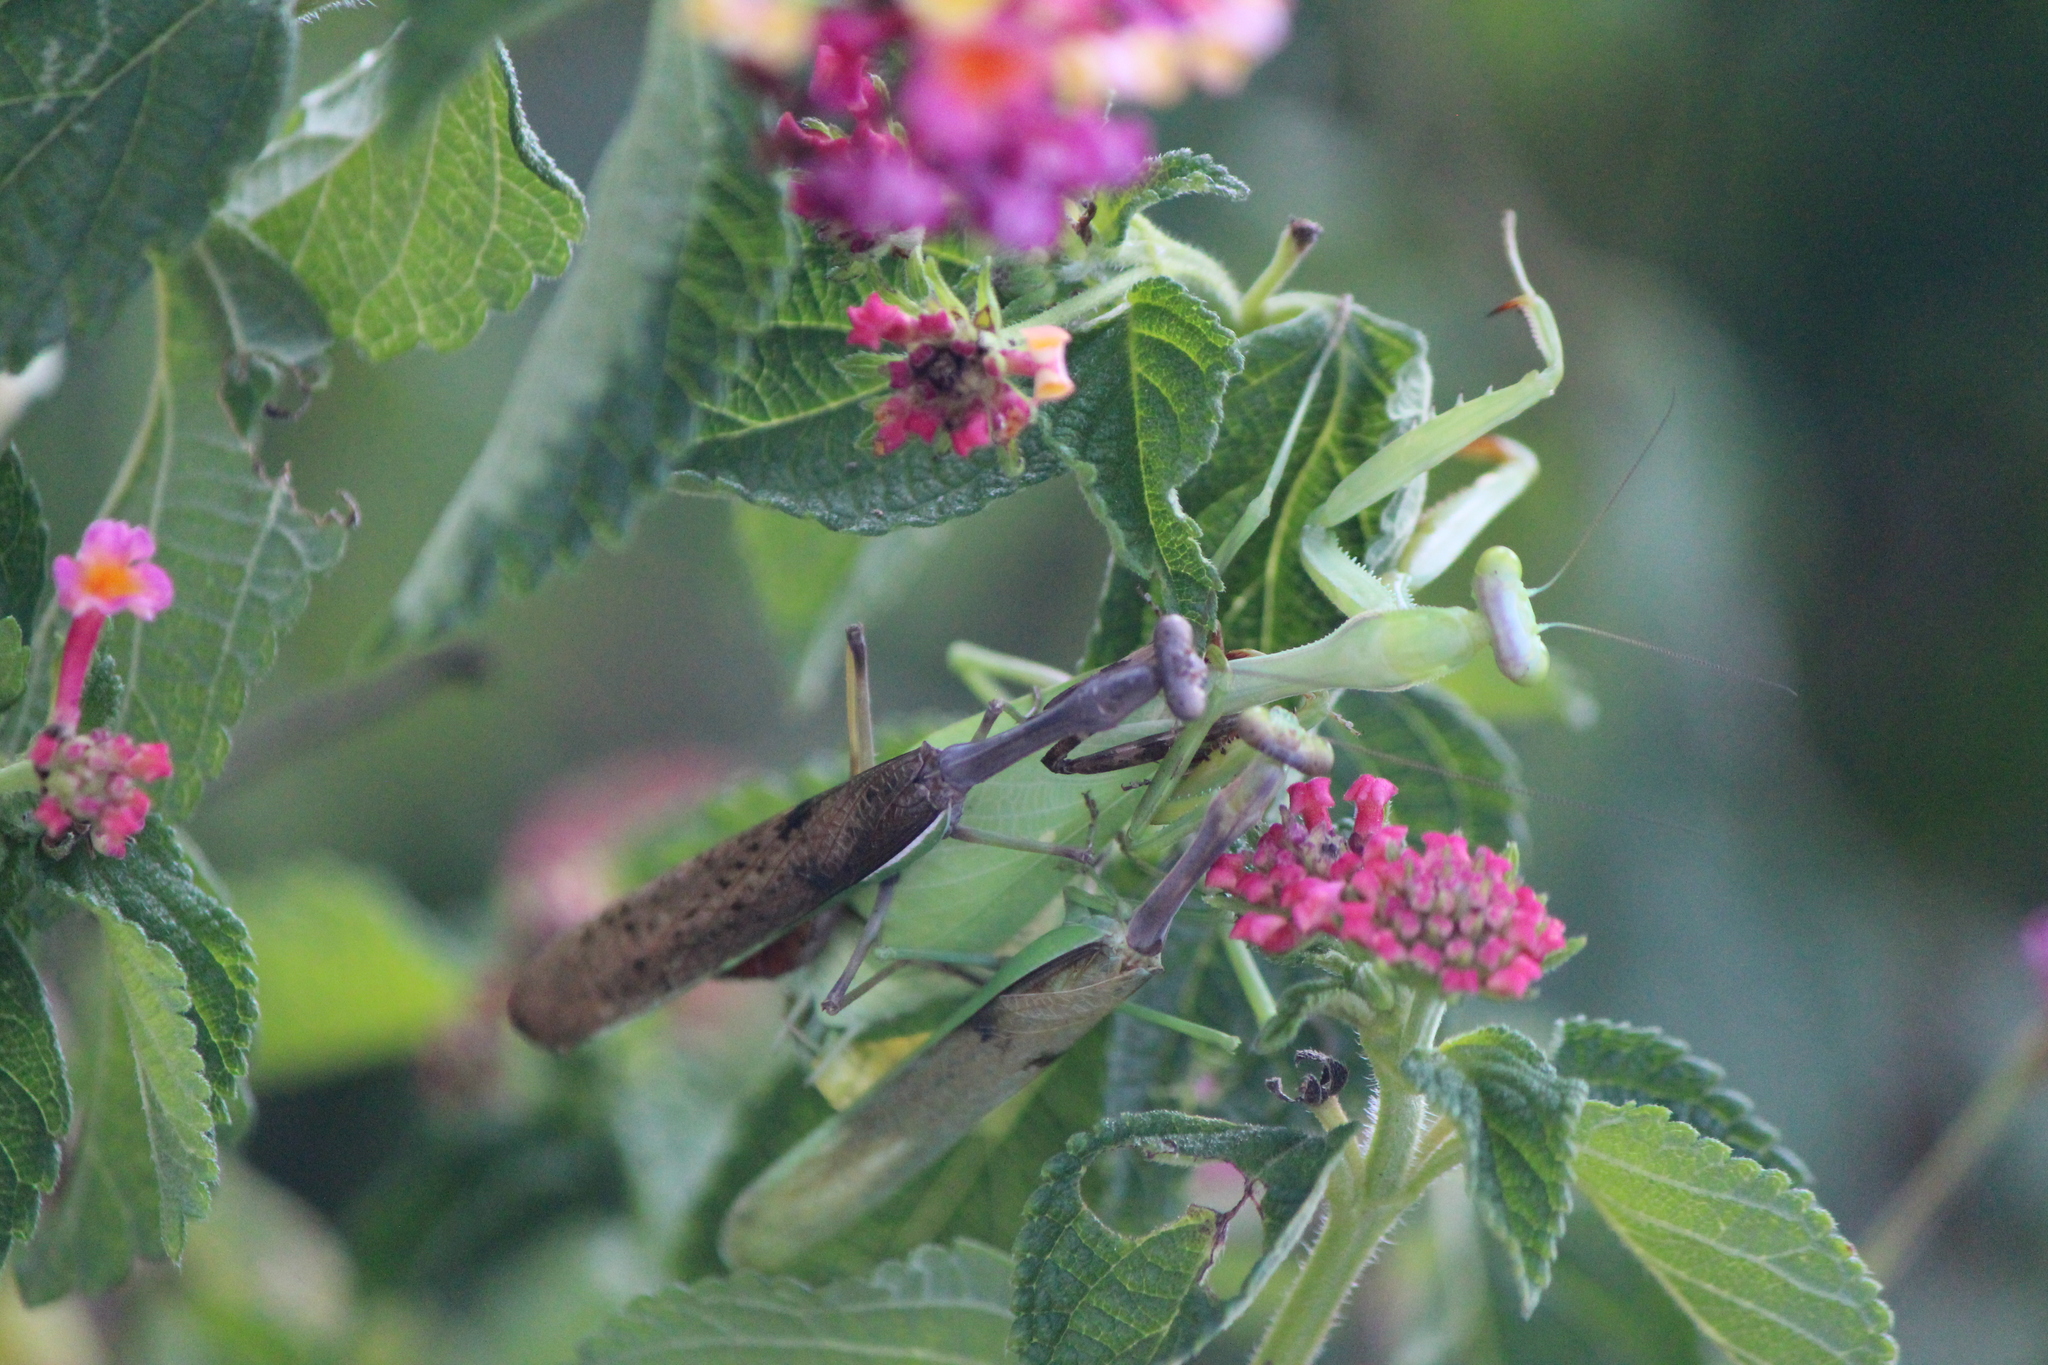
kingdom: Animalia
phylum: Arthropoda
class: Insecta
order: Mantodea
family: Mantidae
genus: Stagmomantis
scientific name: Stagmomantis limbata
